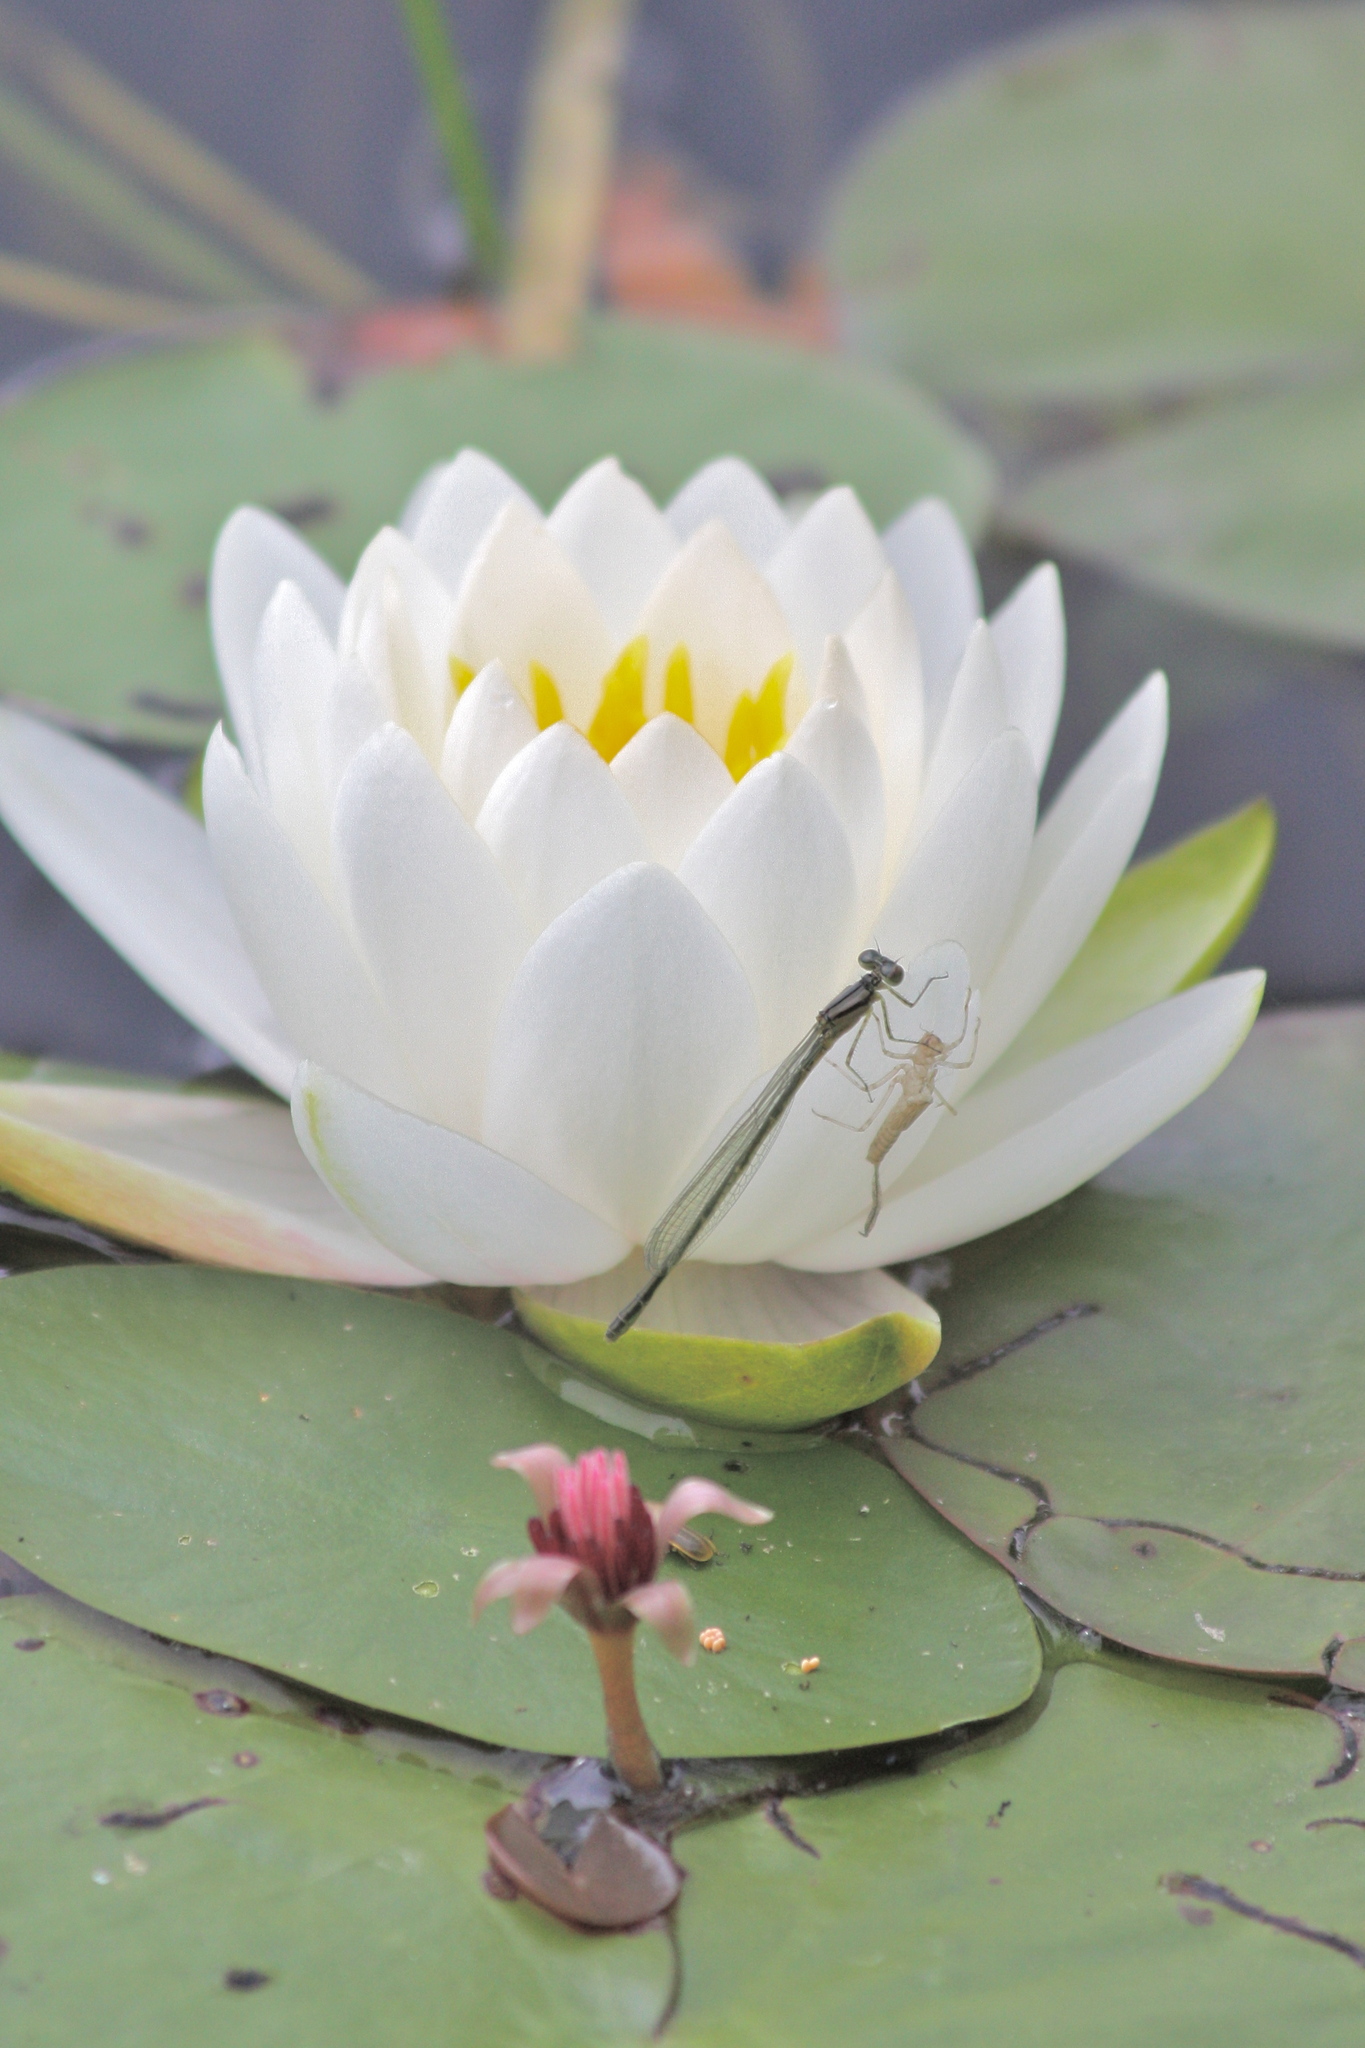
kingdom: Plantae
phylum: Tracheophyta
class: Magnoliopsida
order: Nymphaeales
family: Nymphaeaceae
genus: Nymphaea
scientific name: Nymphaea odorata
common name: Fragrant water-lily
